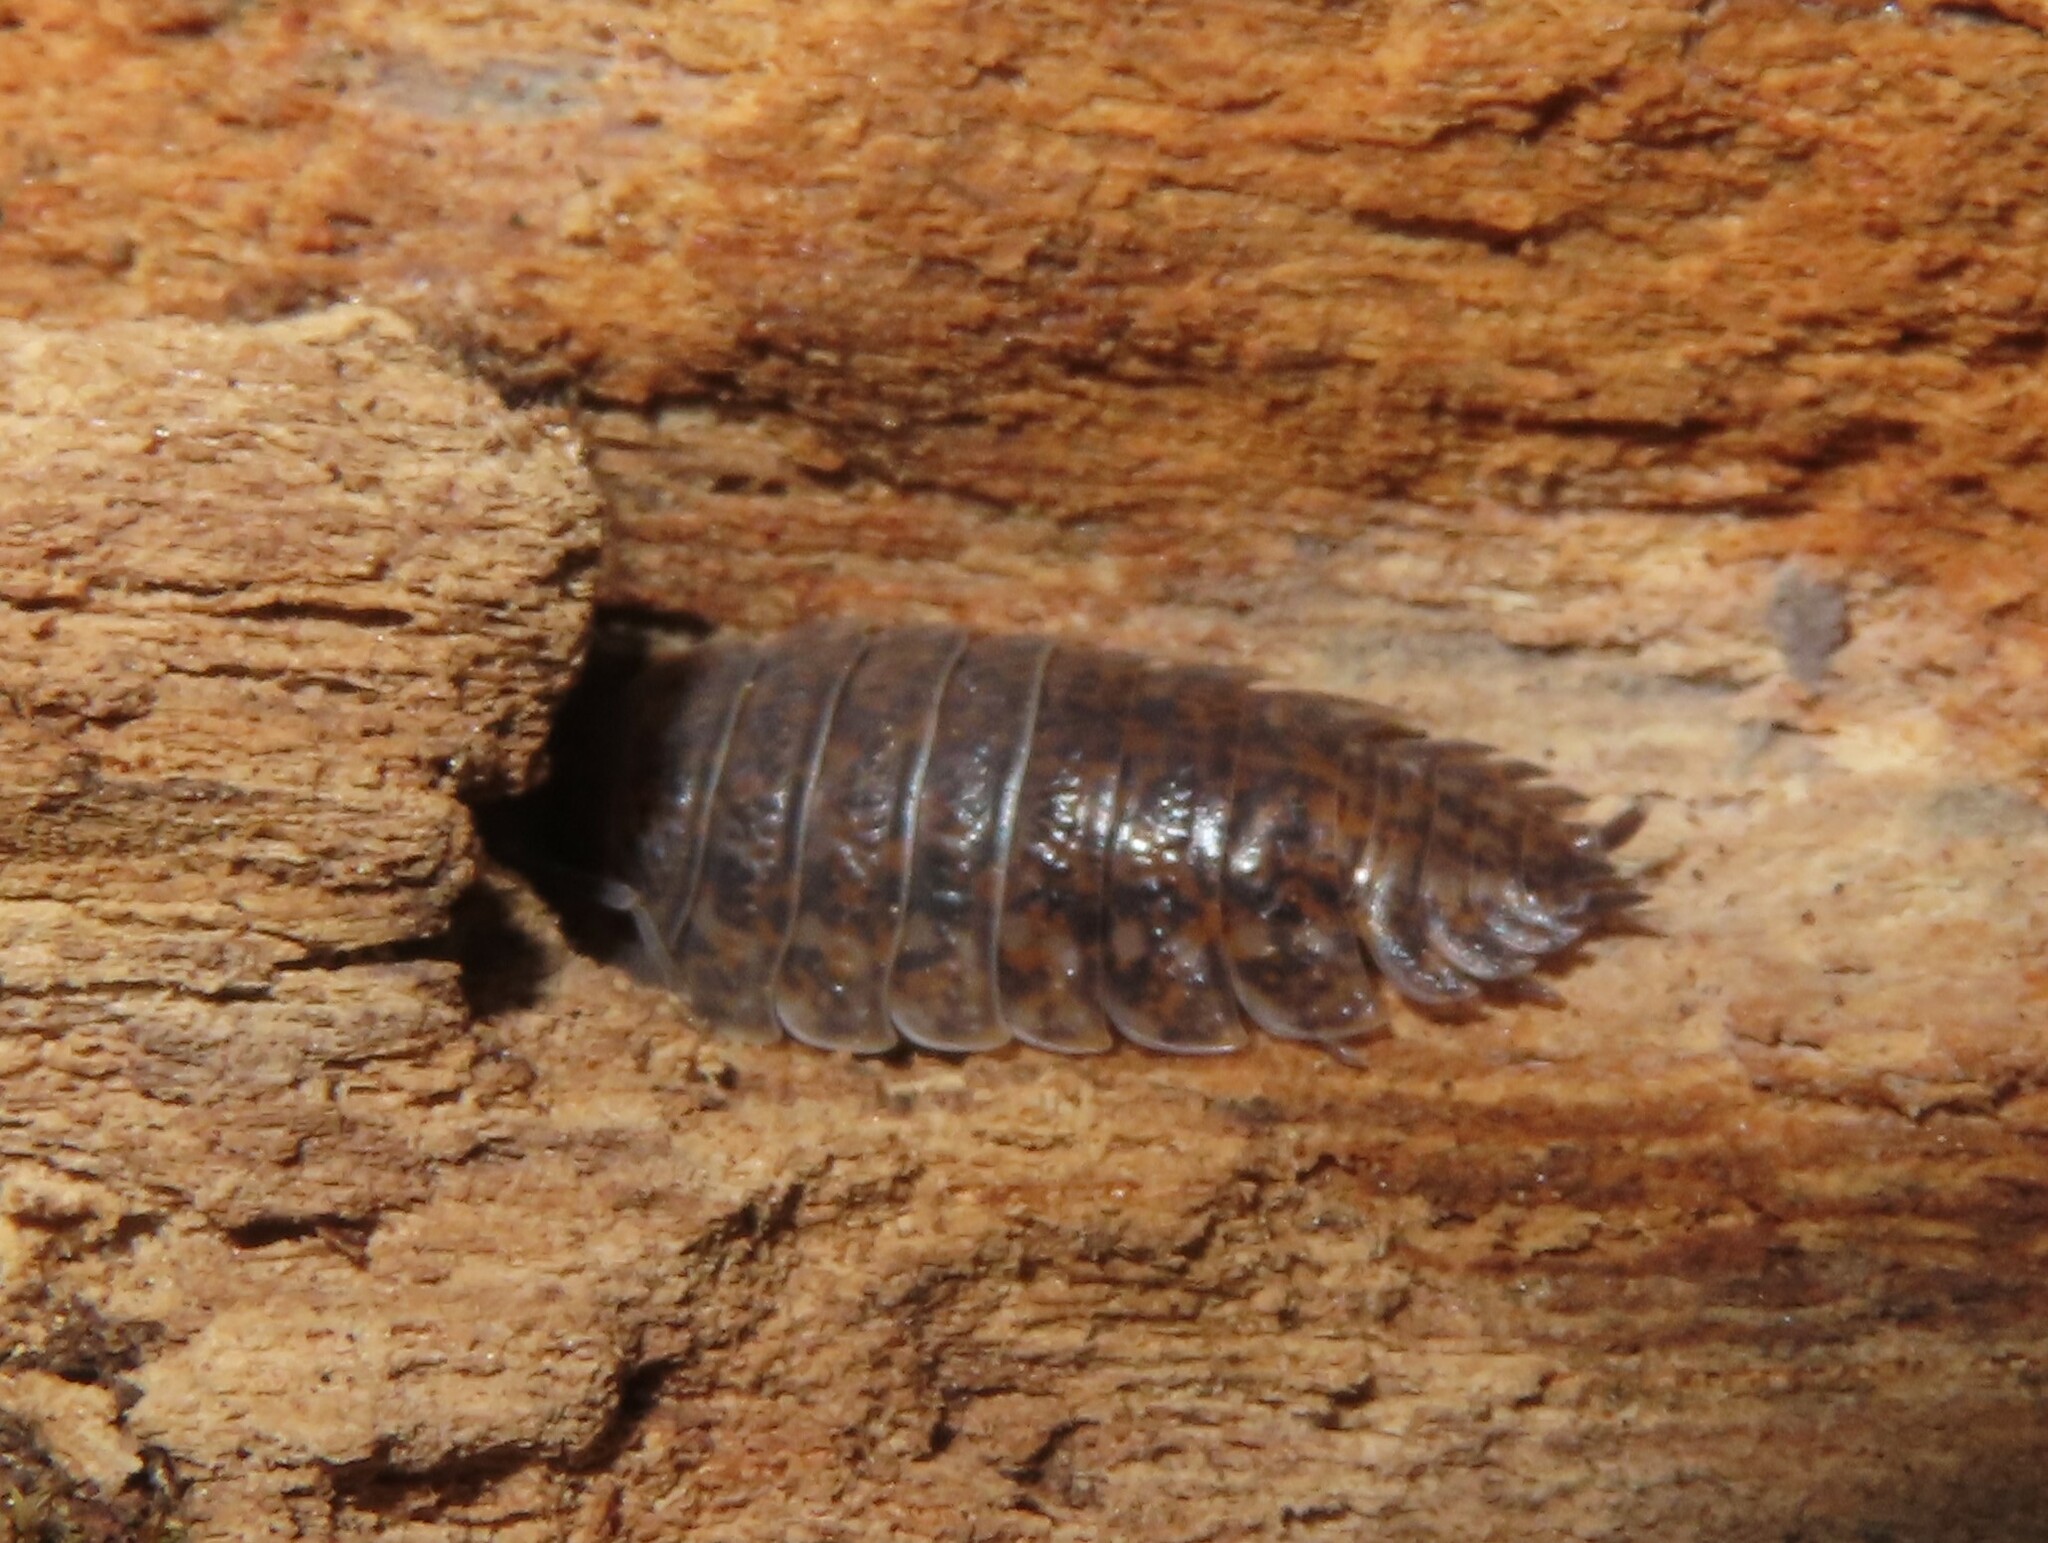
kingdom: Animalia
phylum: Arthropoda
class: Malacostraca
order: Isopoda
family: Trachelipodidae
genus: Trachelipus
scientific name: Trachelipus rathkii
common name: Isopod
